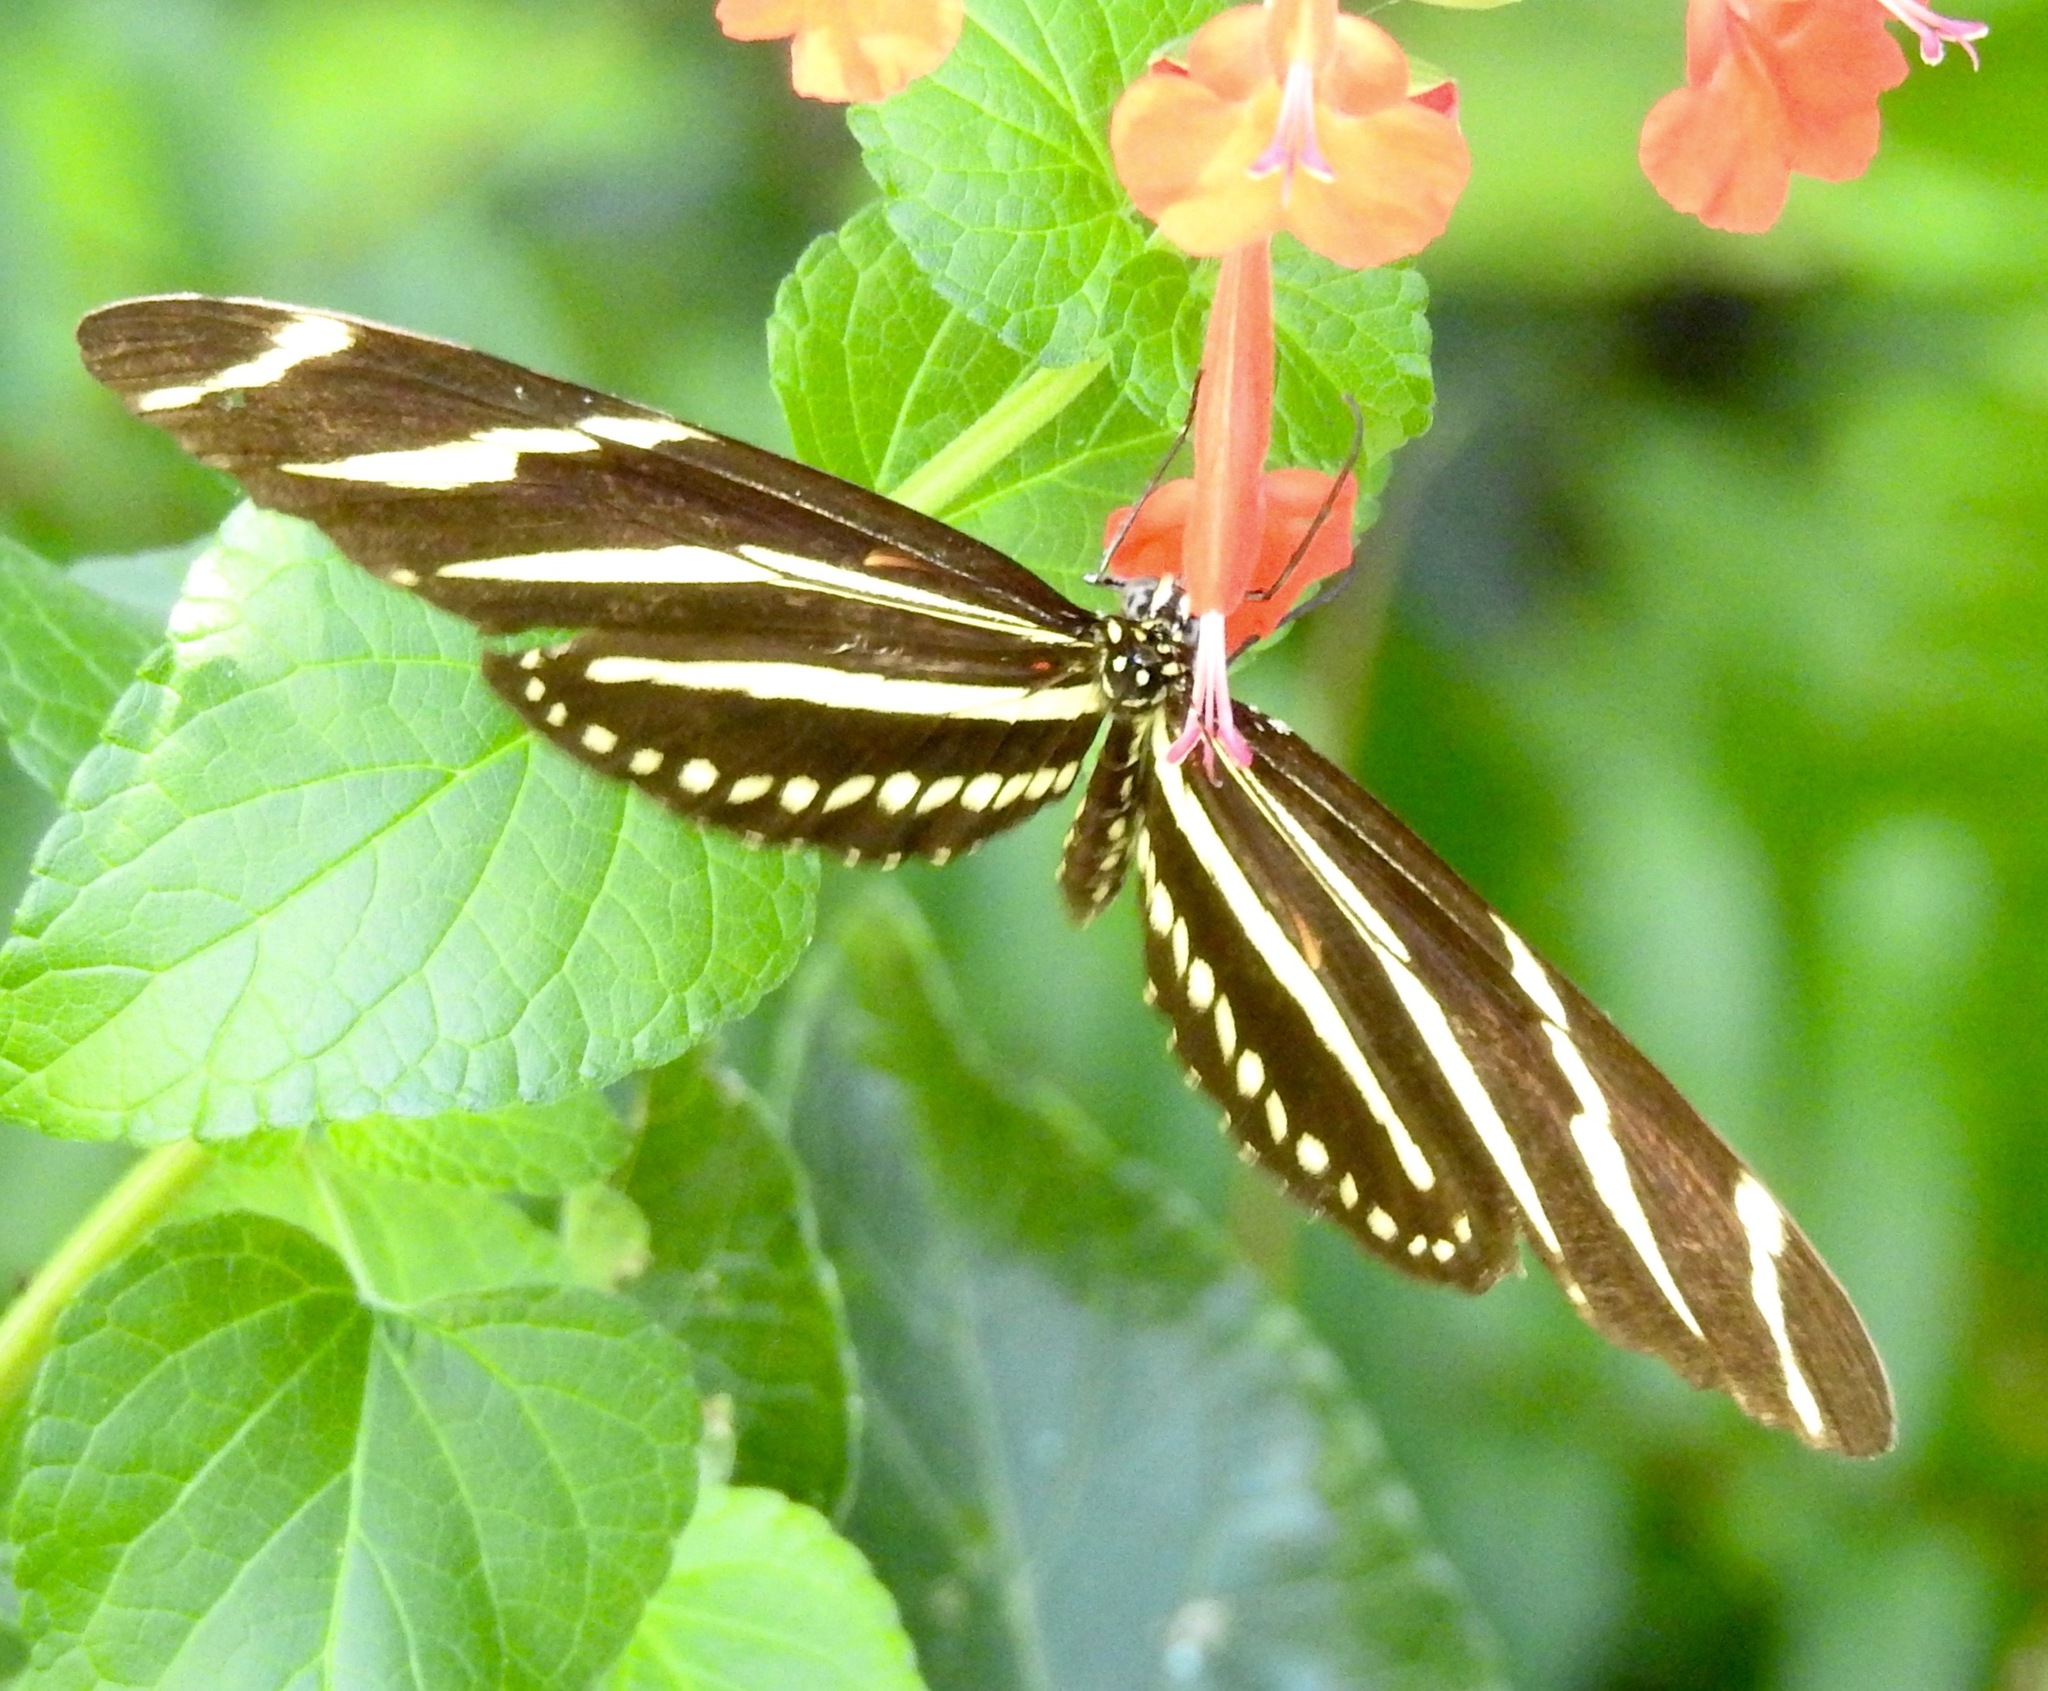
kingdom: Animalia
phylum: Arthropoda
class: Insecta
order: Lepidoptera
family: Nymphalidae
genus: Heliconius
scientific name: Heliconius charithonia
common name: Zebra long wing
